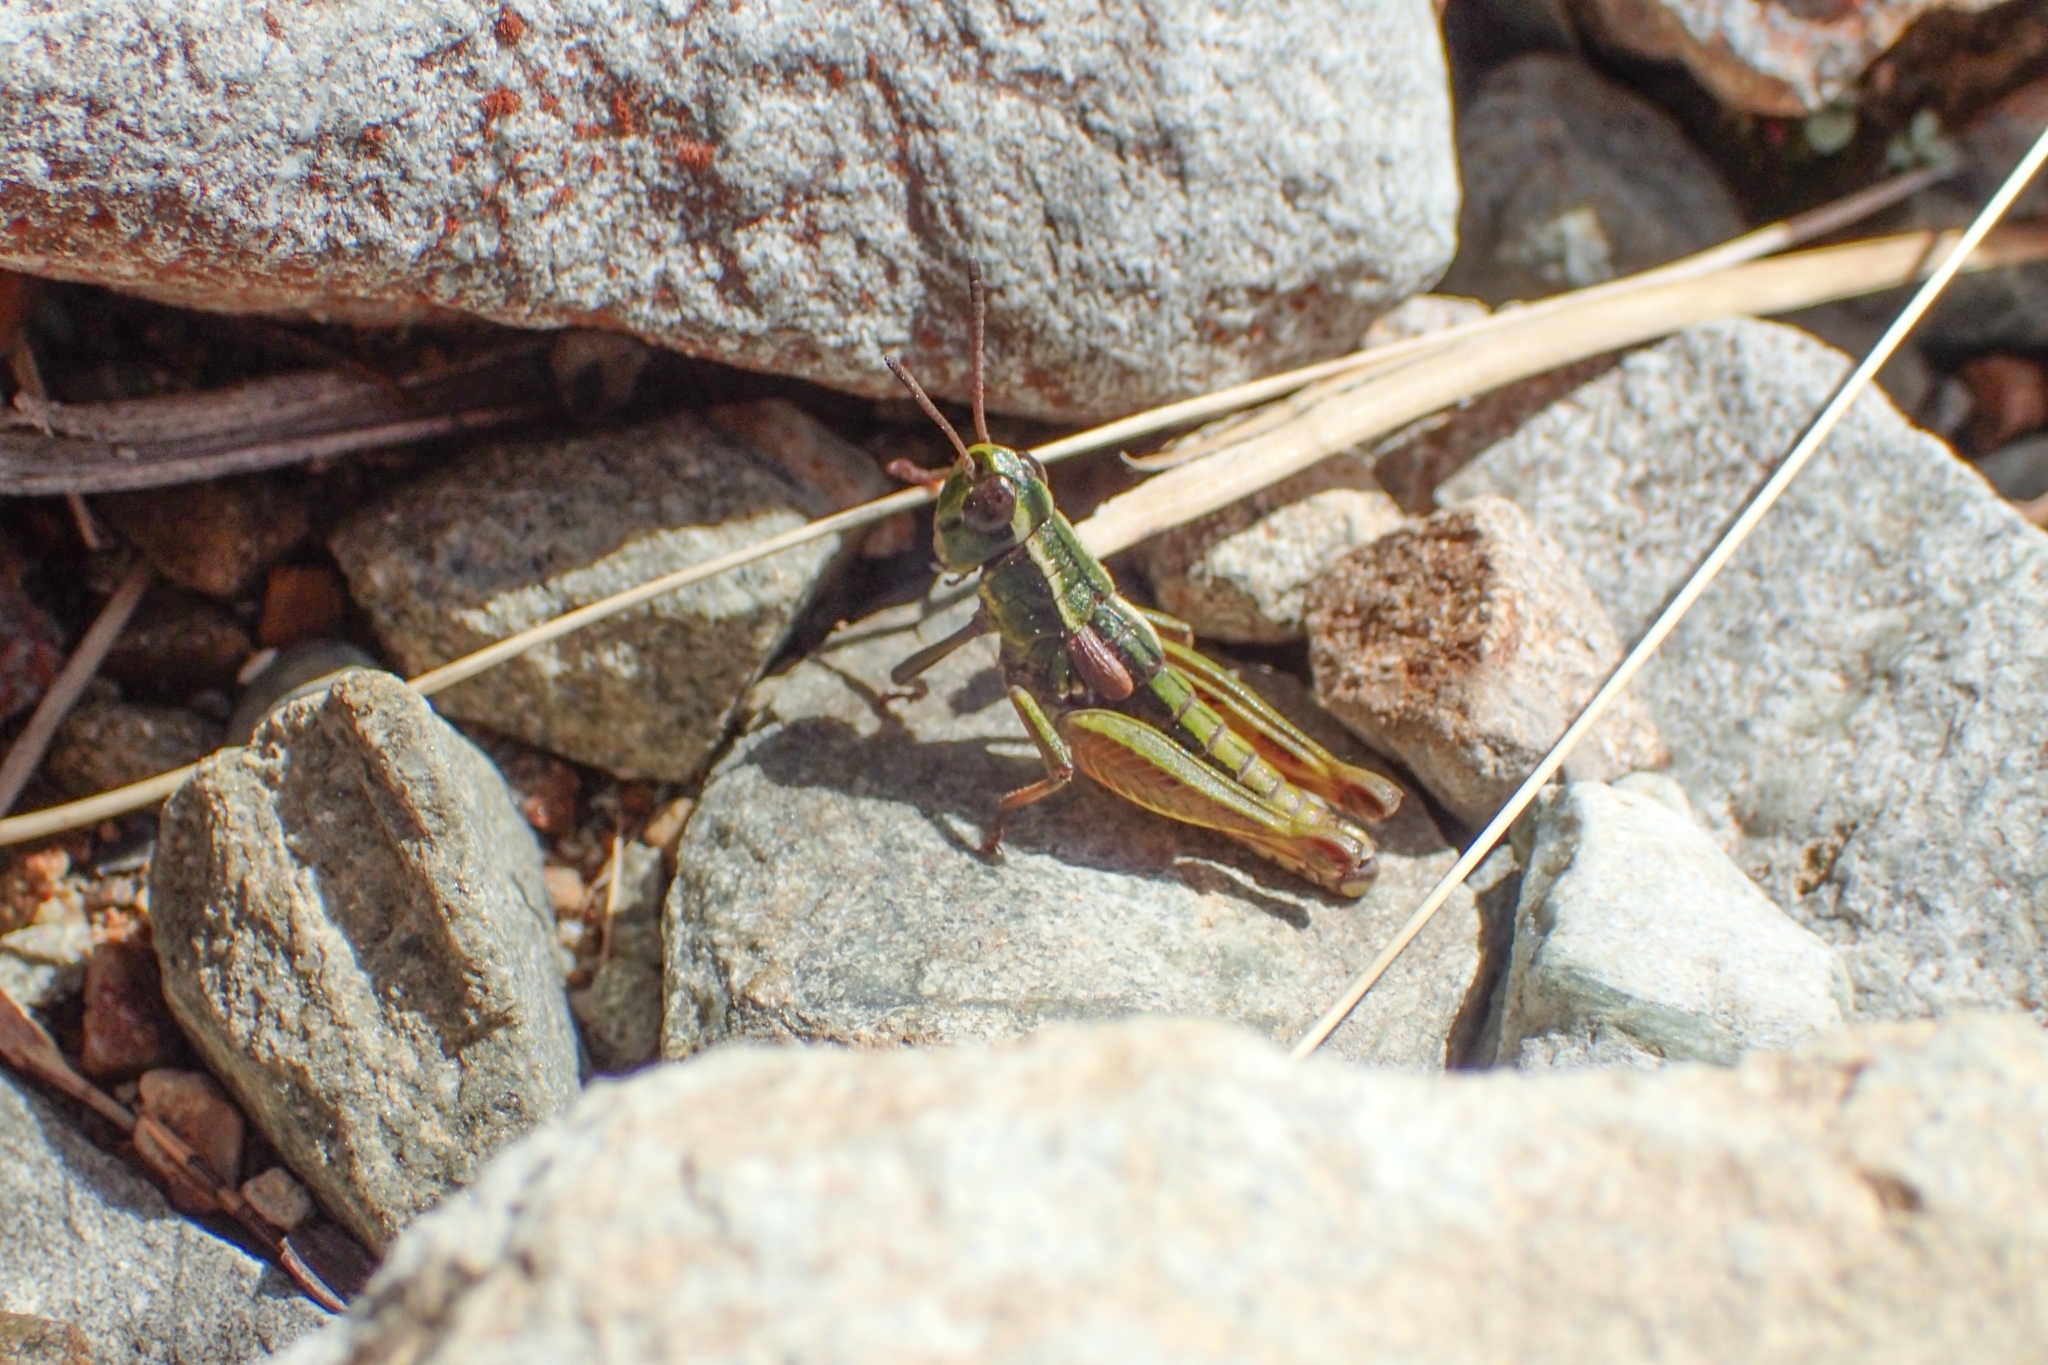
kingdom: Animalia
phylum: Arthropoda
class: Insecta
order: Orthoptera
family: Acrididae
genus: Sigaus
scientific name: Sigaus australis
